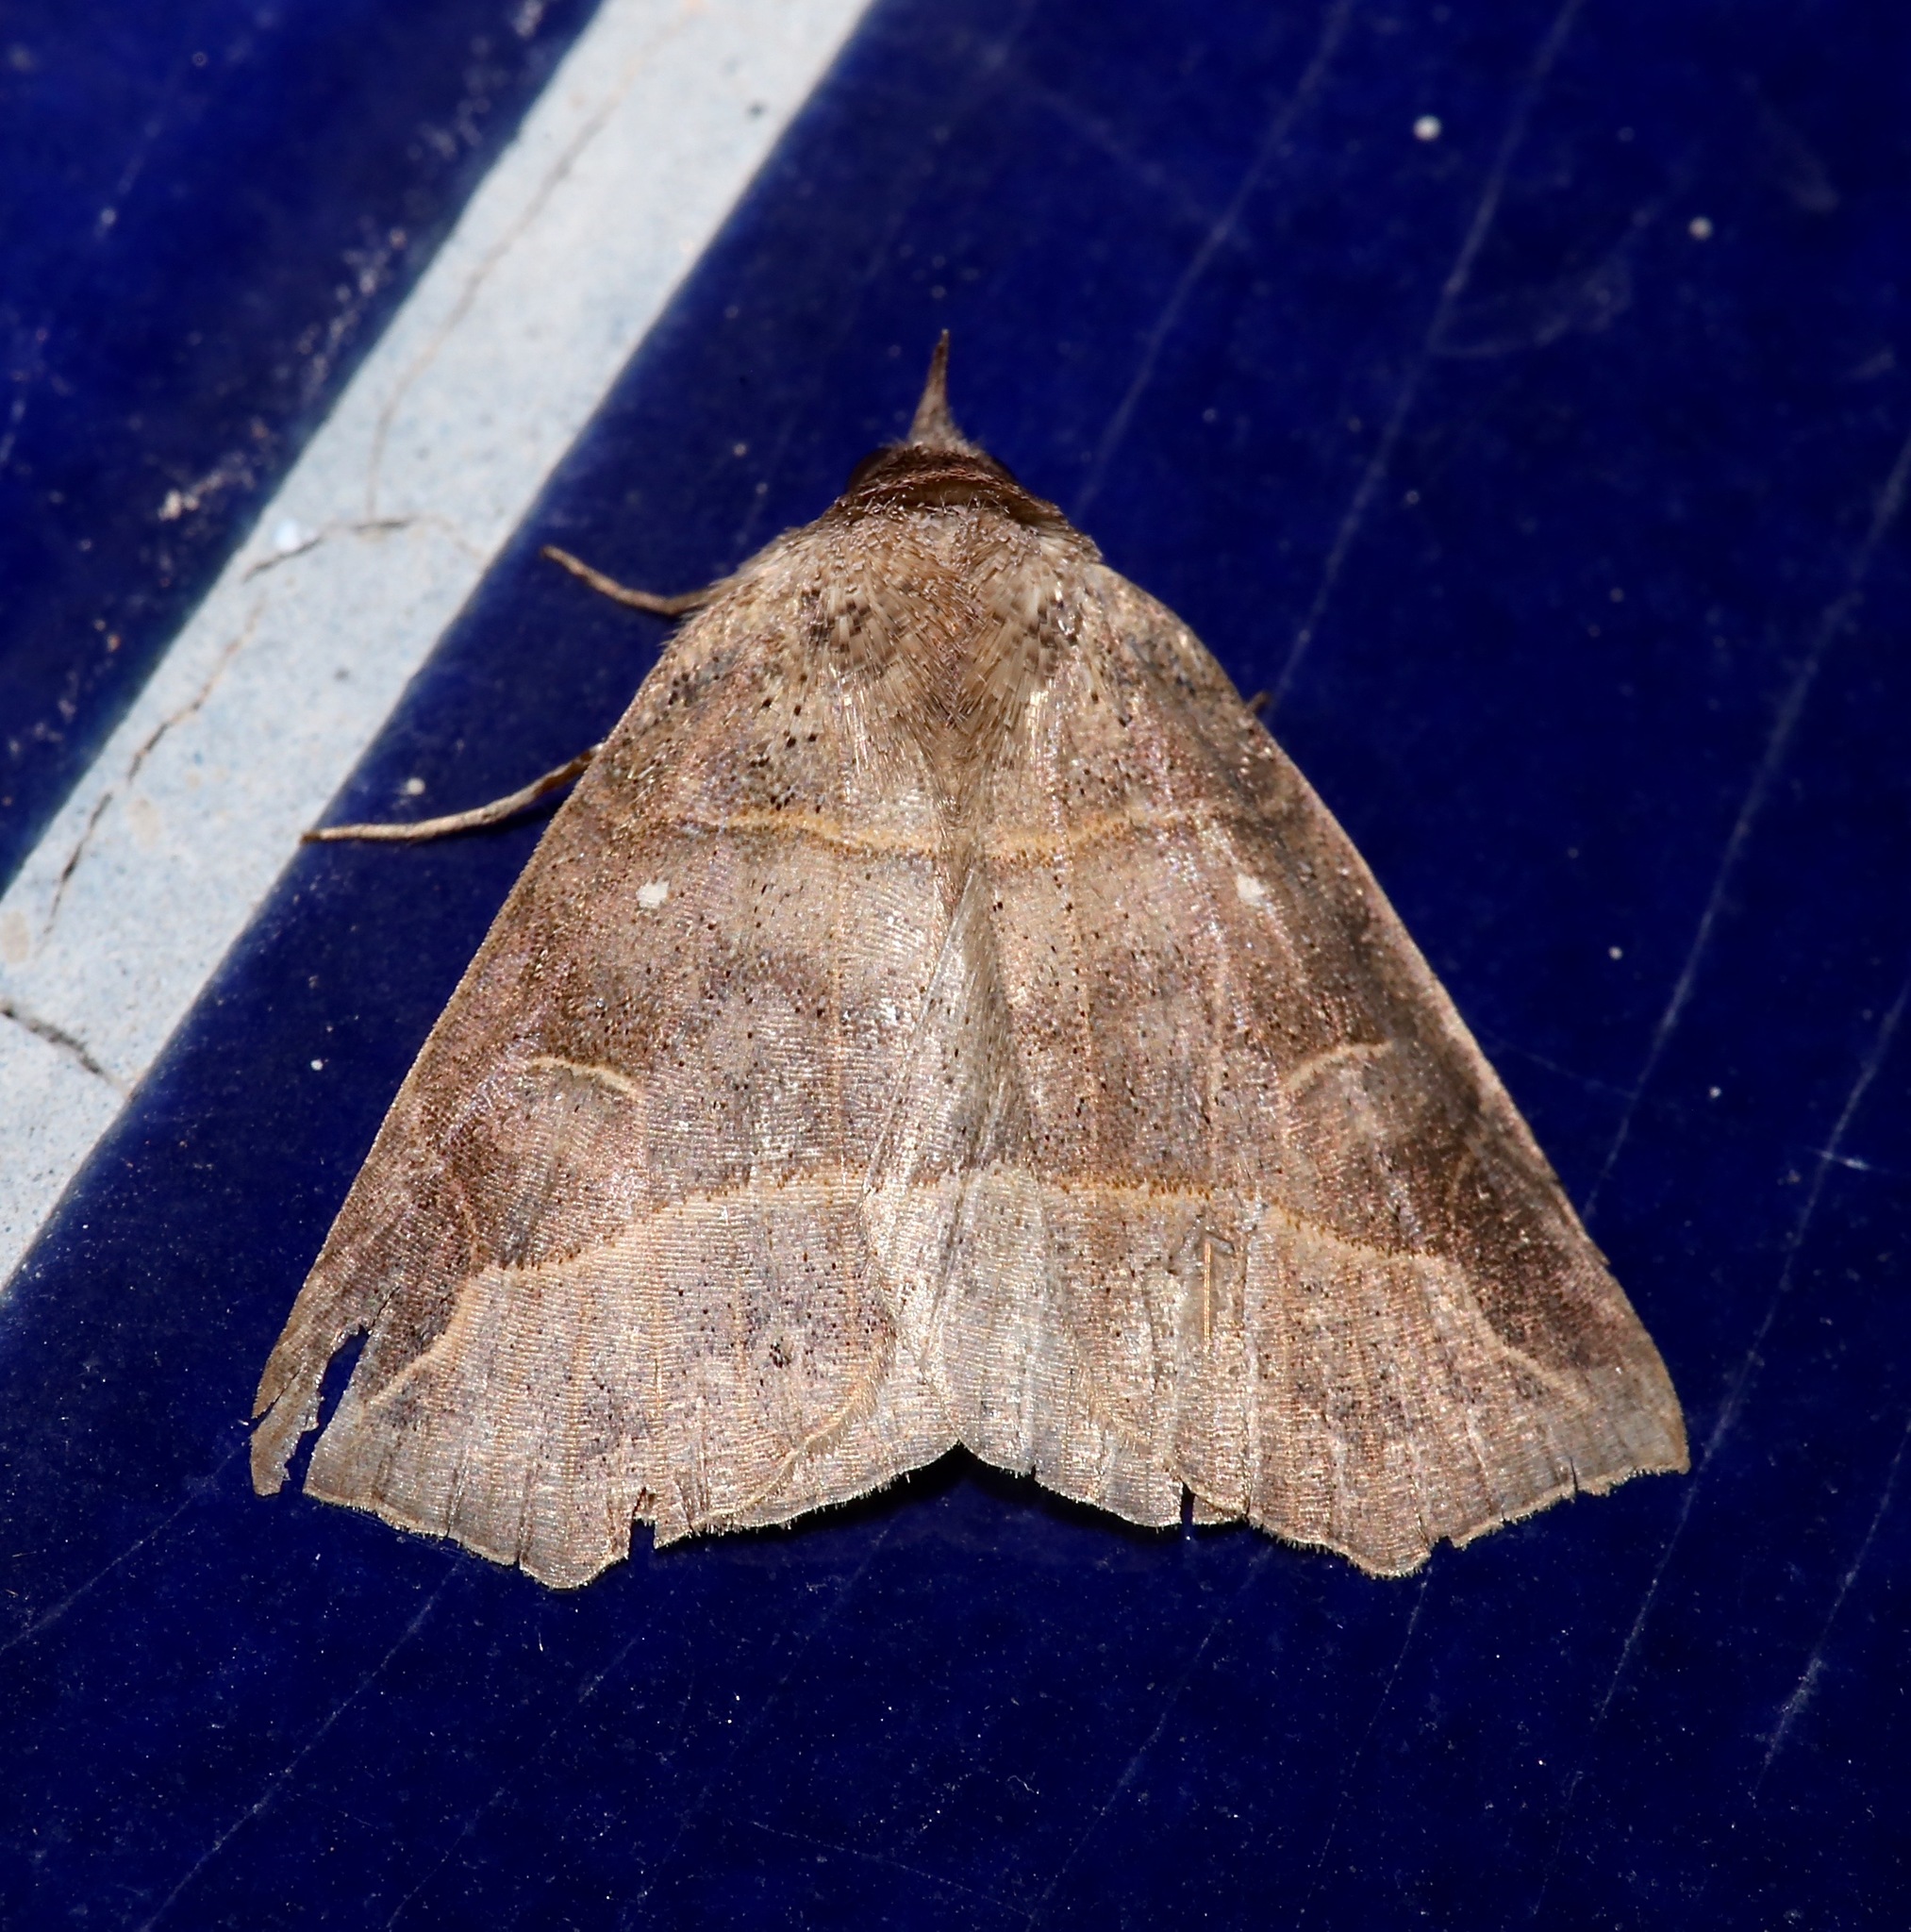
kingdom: Animalia
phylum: Arthropoda
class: Insecta
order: Lepidoptera
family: Erebidae
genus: Isogona
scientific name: Isogona tenuis
